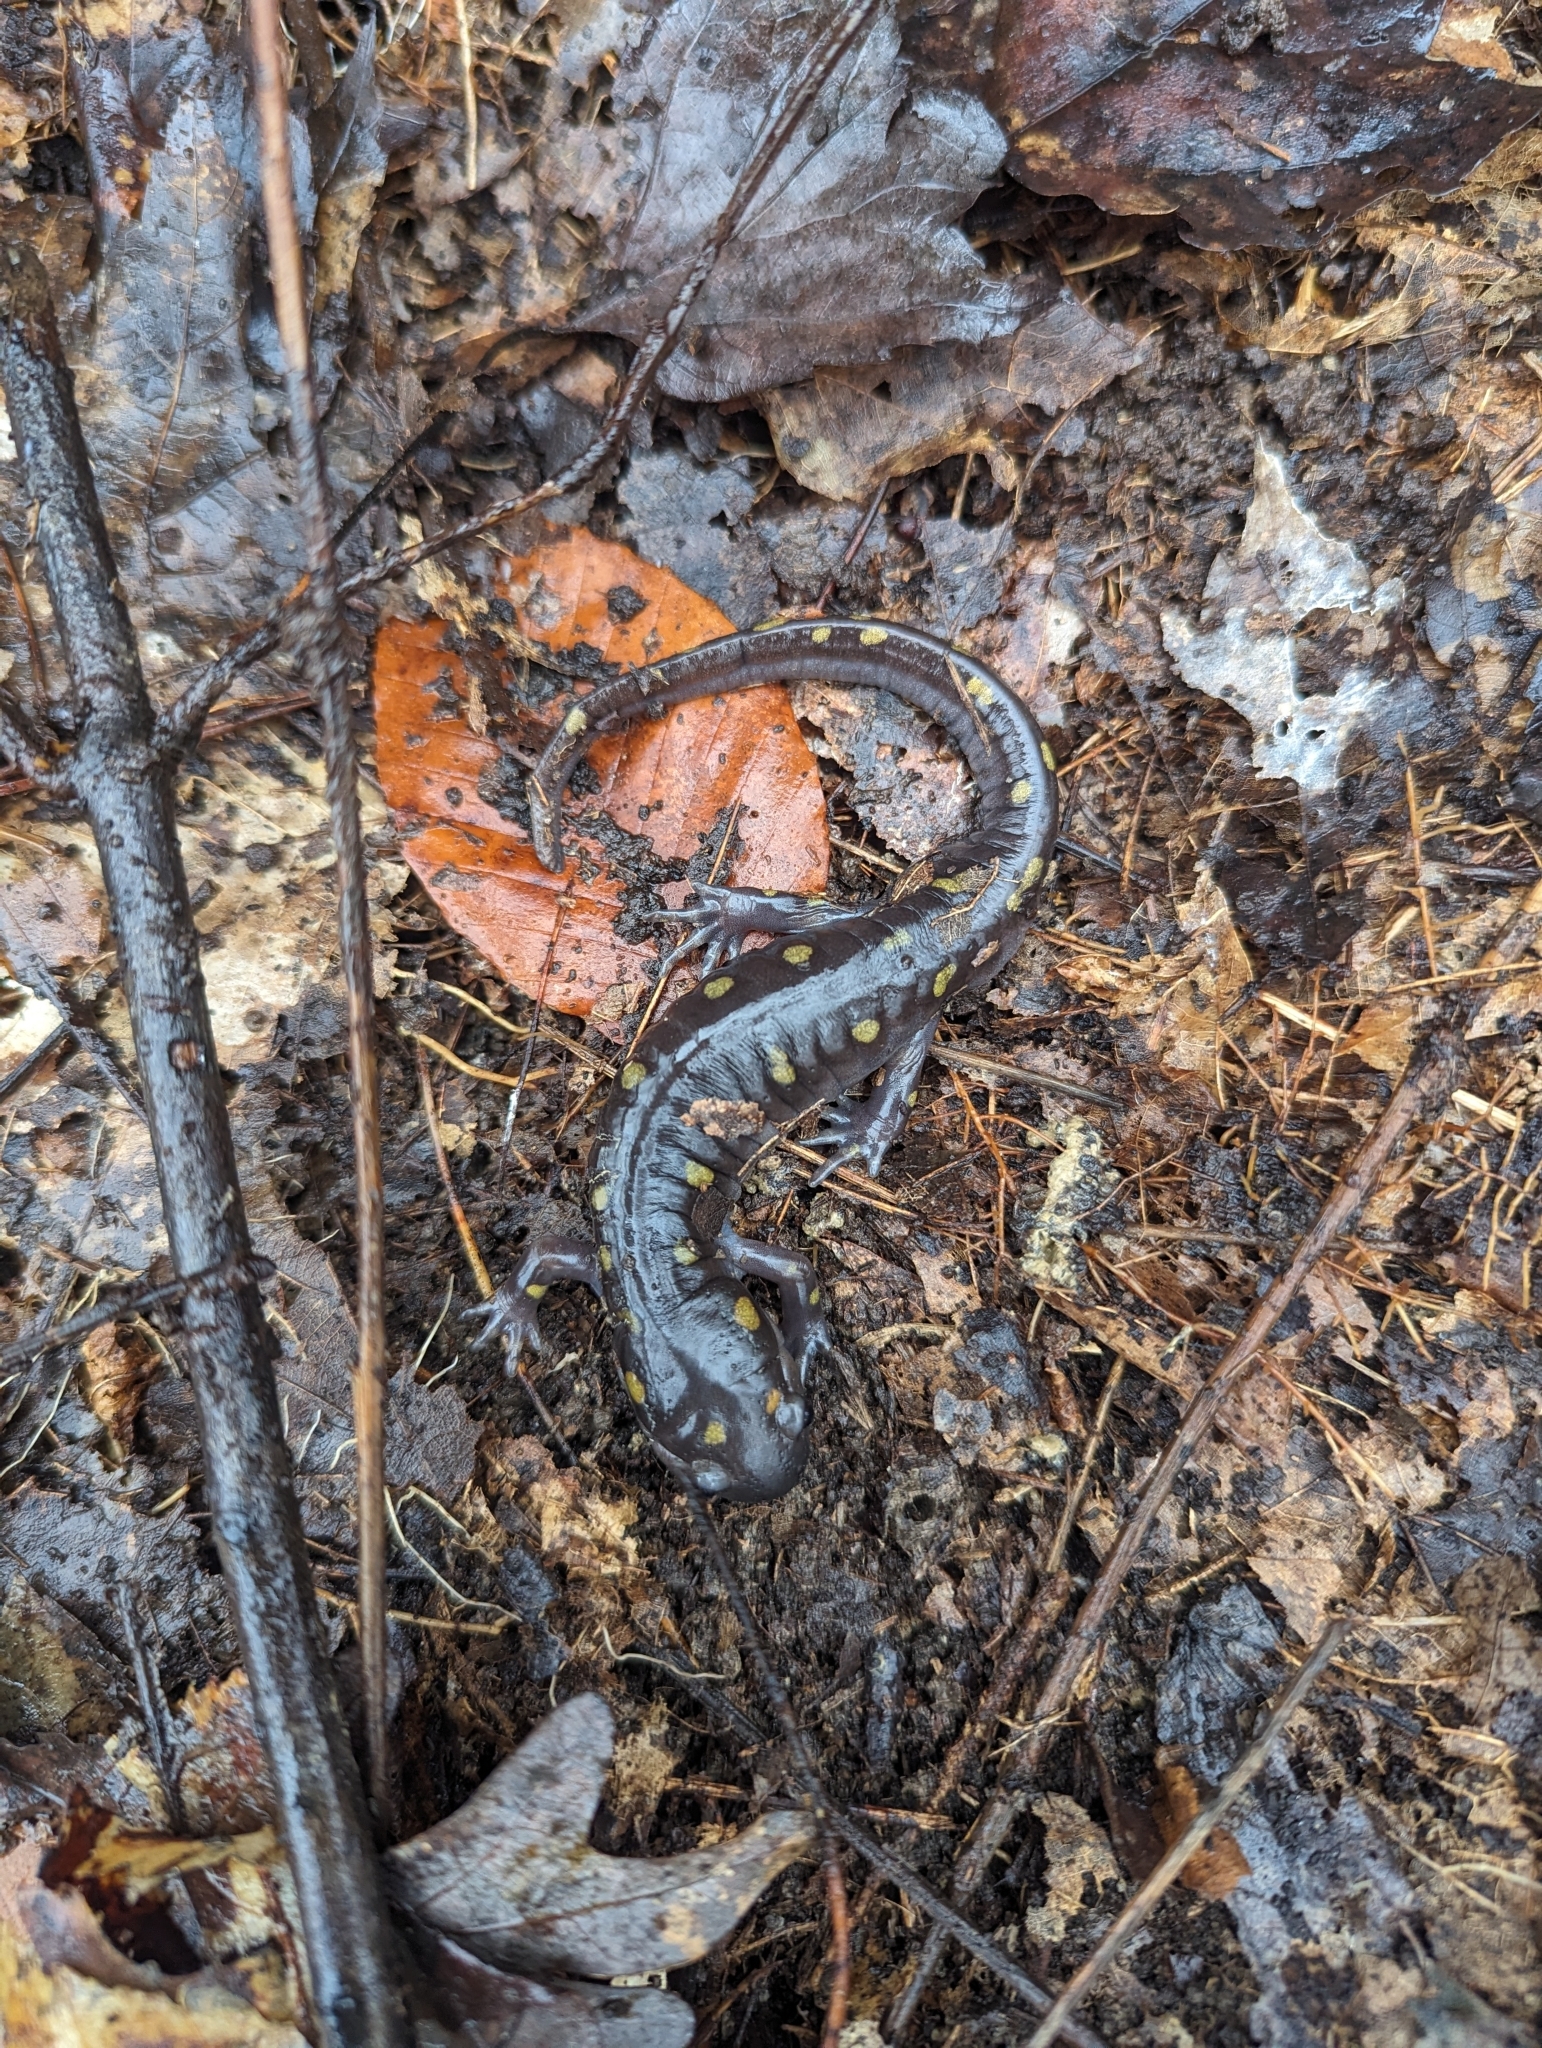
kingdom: Animalia
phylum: Chordata
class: Amphibia
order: Caudata
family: Ambystomatidae
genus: Ambystoma
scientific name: Ambystoma maculatum
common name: Spotted salamander
